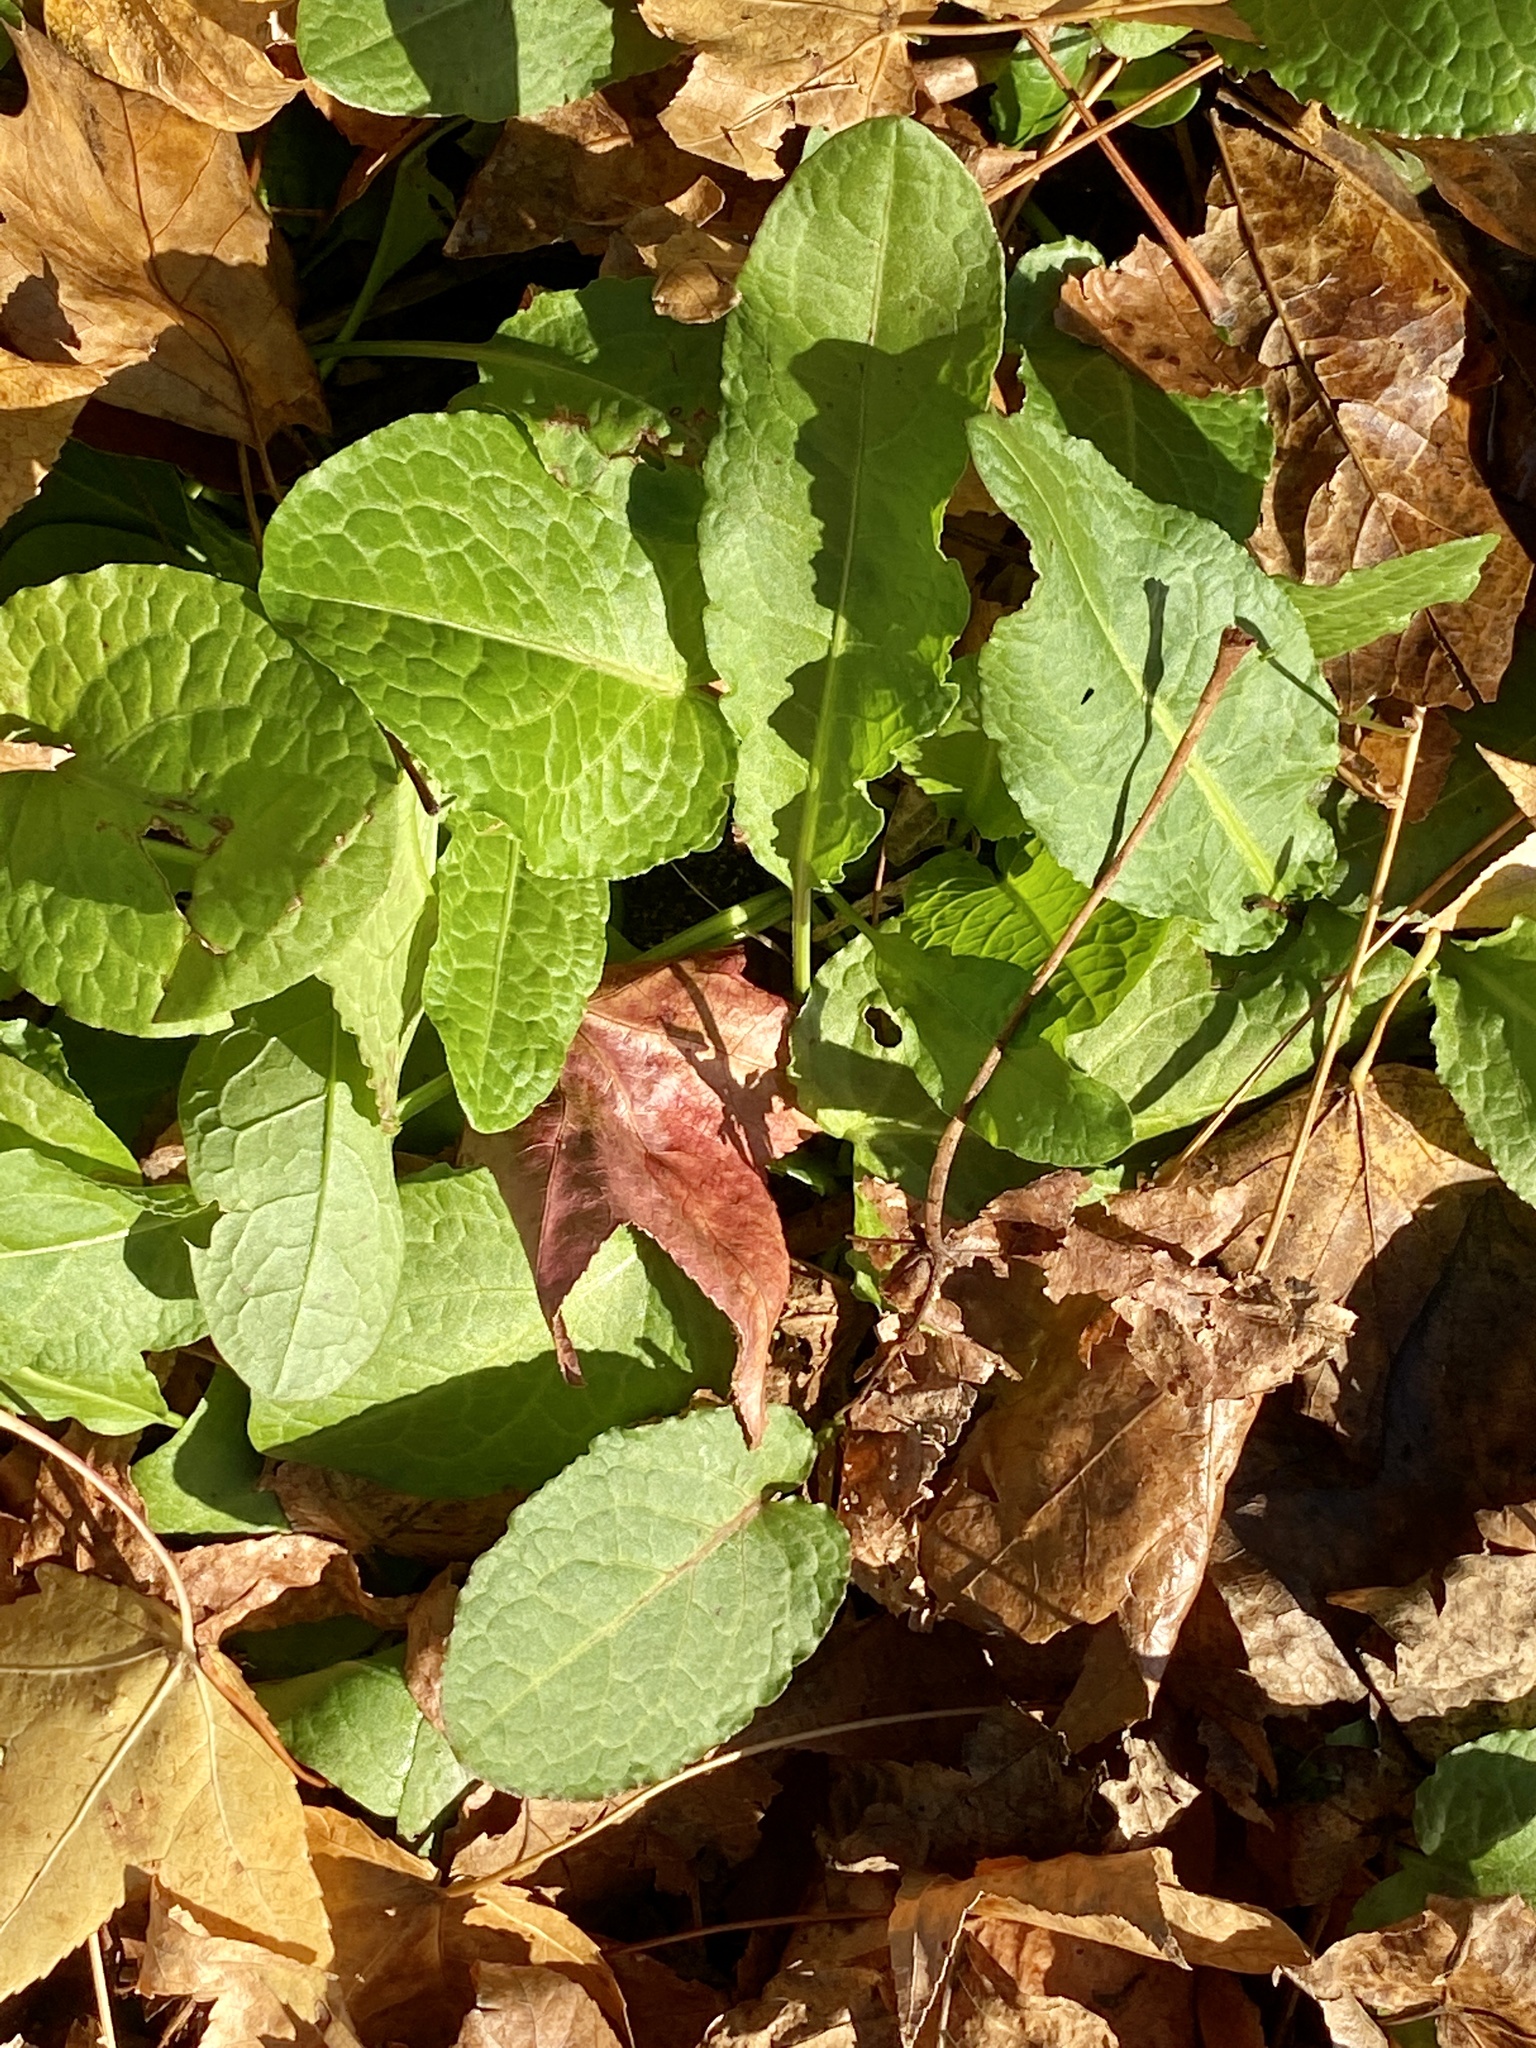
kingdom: Plantae
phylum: Tracheophyta
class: Magnoliopsida
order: Caryophyllales
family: Polygonaceae
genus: Rumex
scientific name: Rumex obtusifolius
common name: Bitter dock
